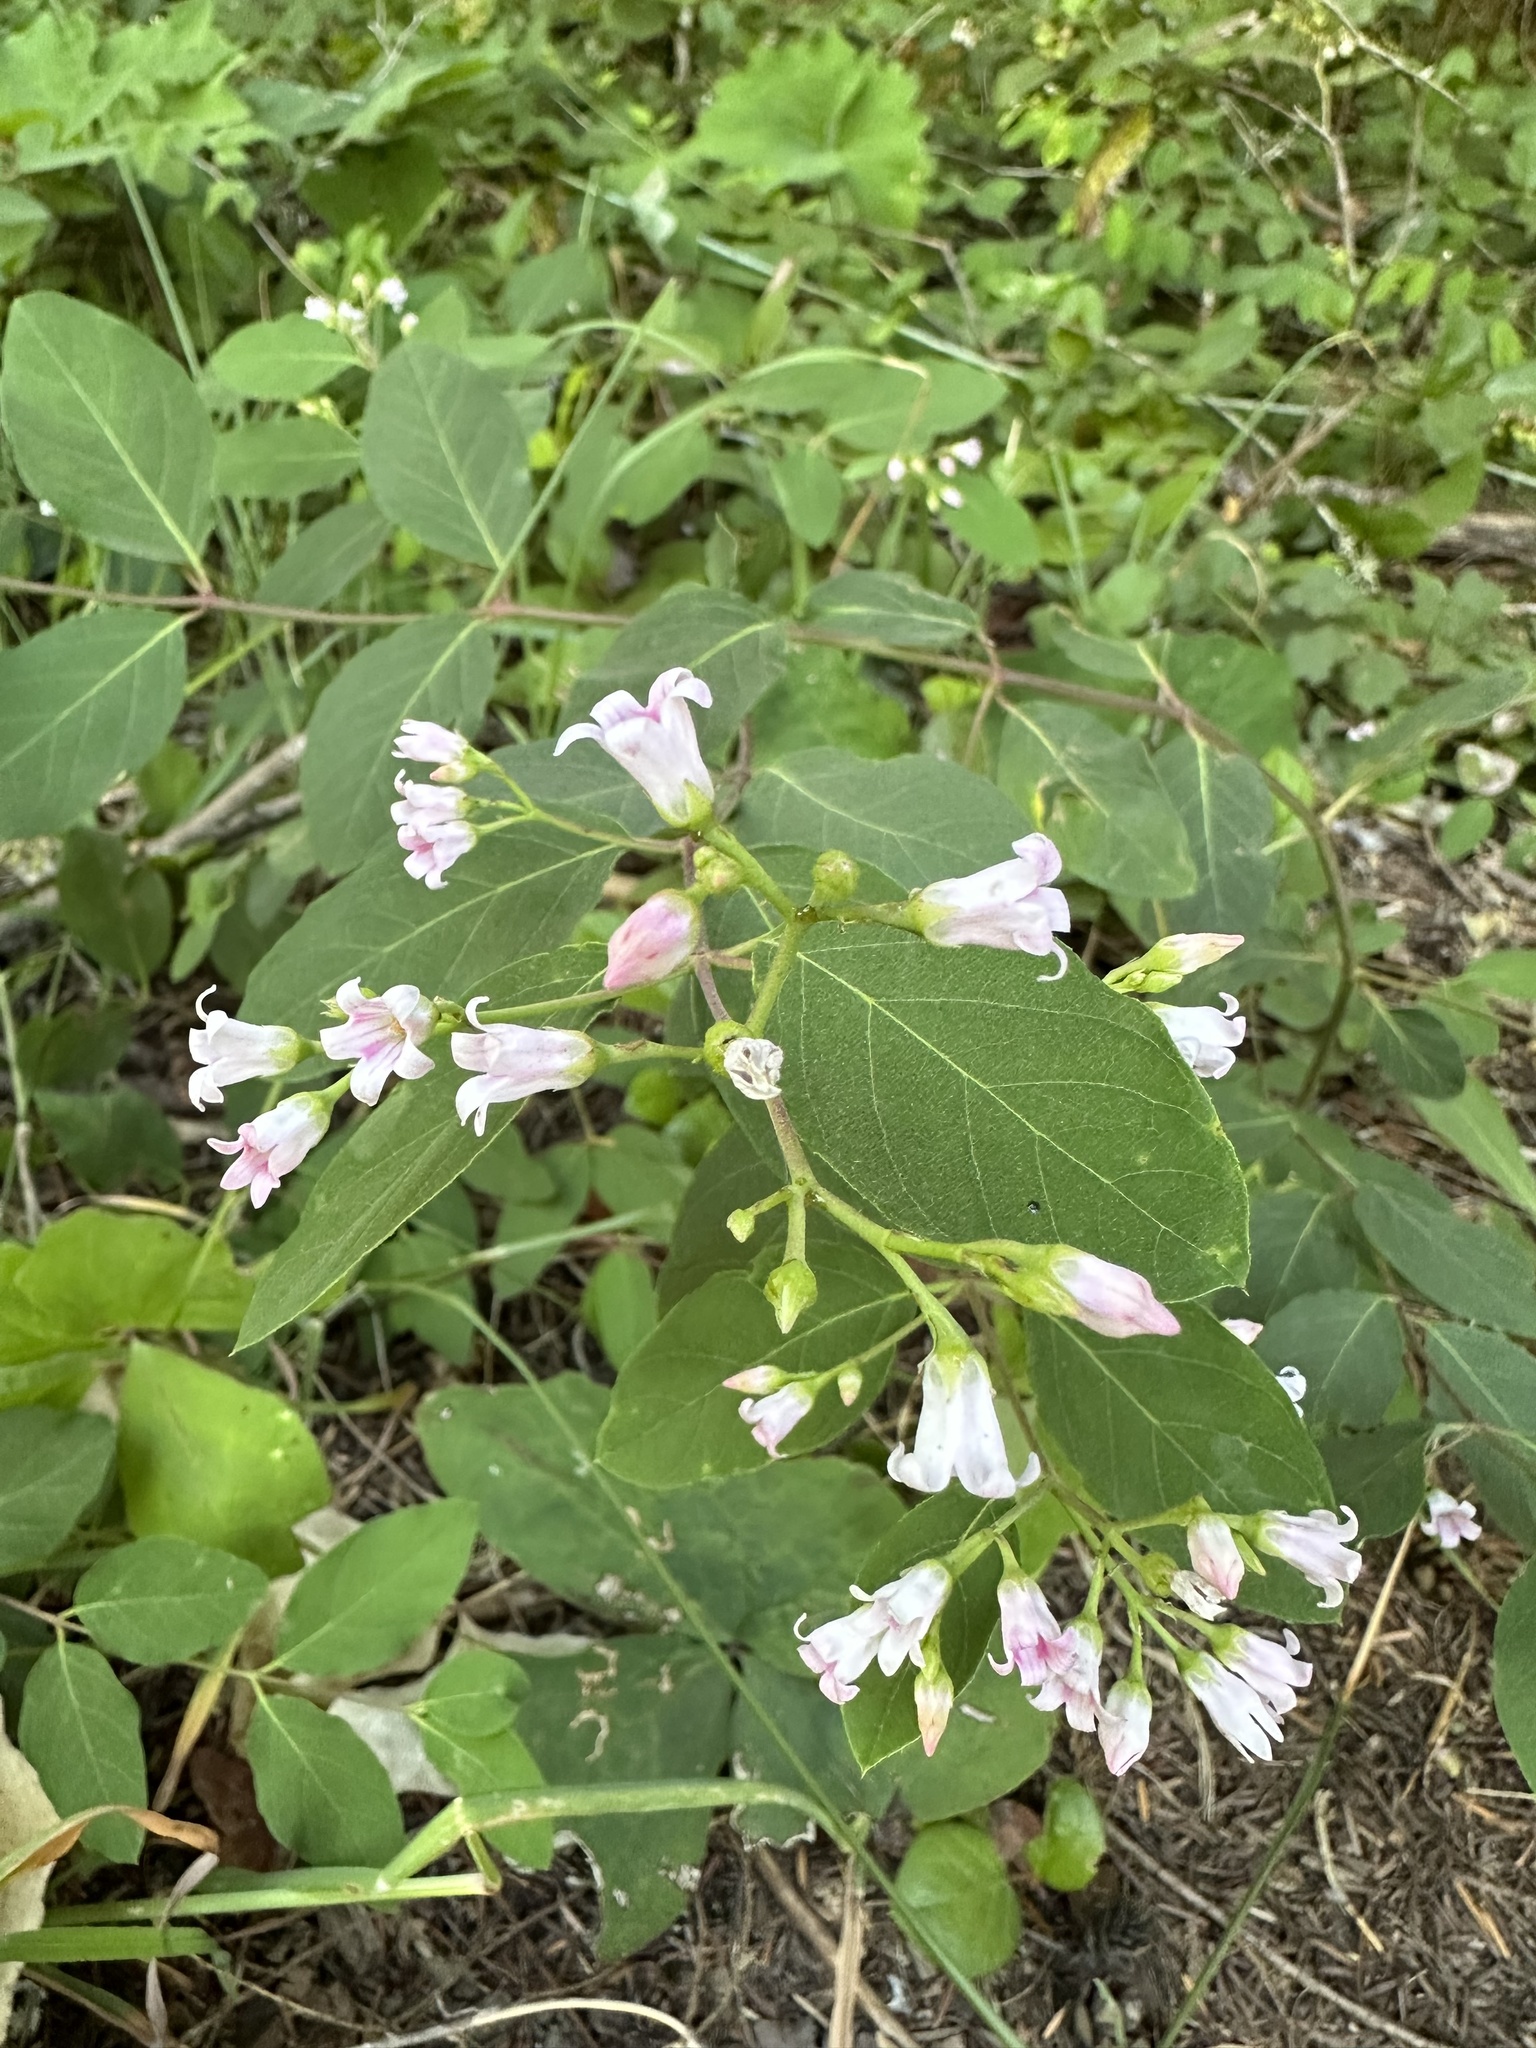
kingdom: Plantae
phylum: Tracheophyta
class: Magnoliopsida
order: Gentianales
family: Apocynaceae
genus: Apocynum
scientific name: Apocynum androsaemifolium
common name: Spreading dogbane
